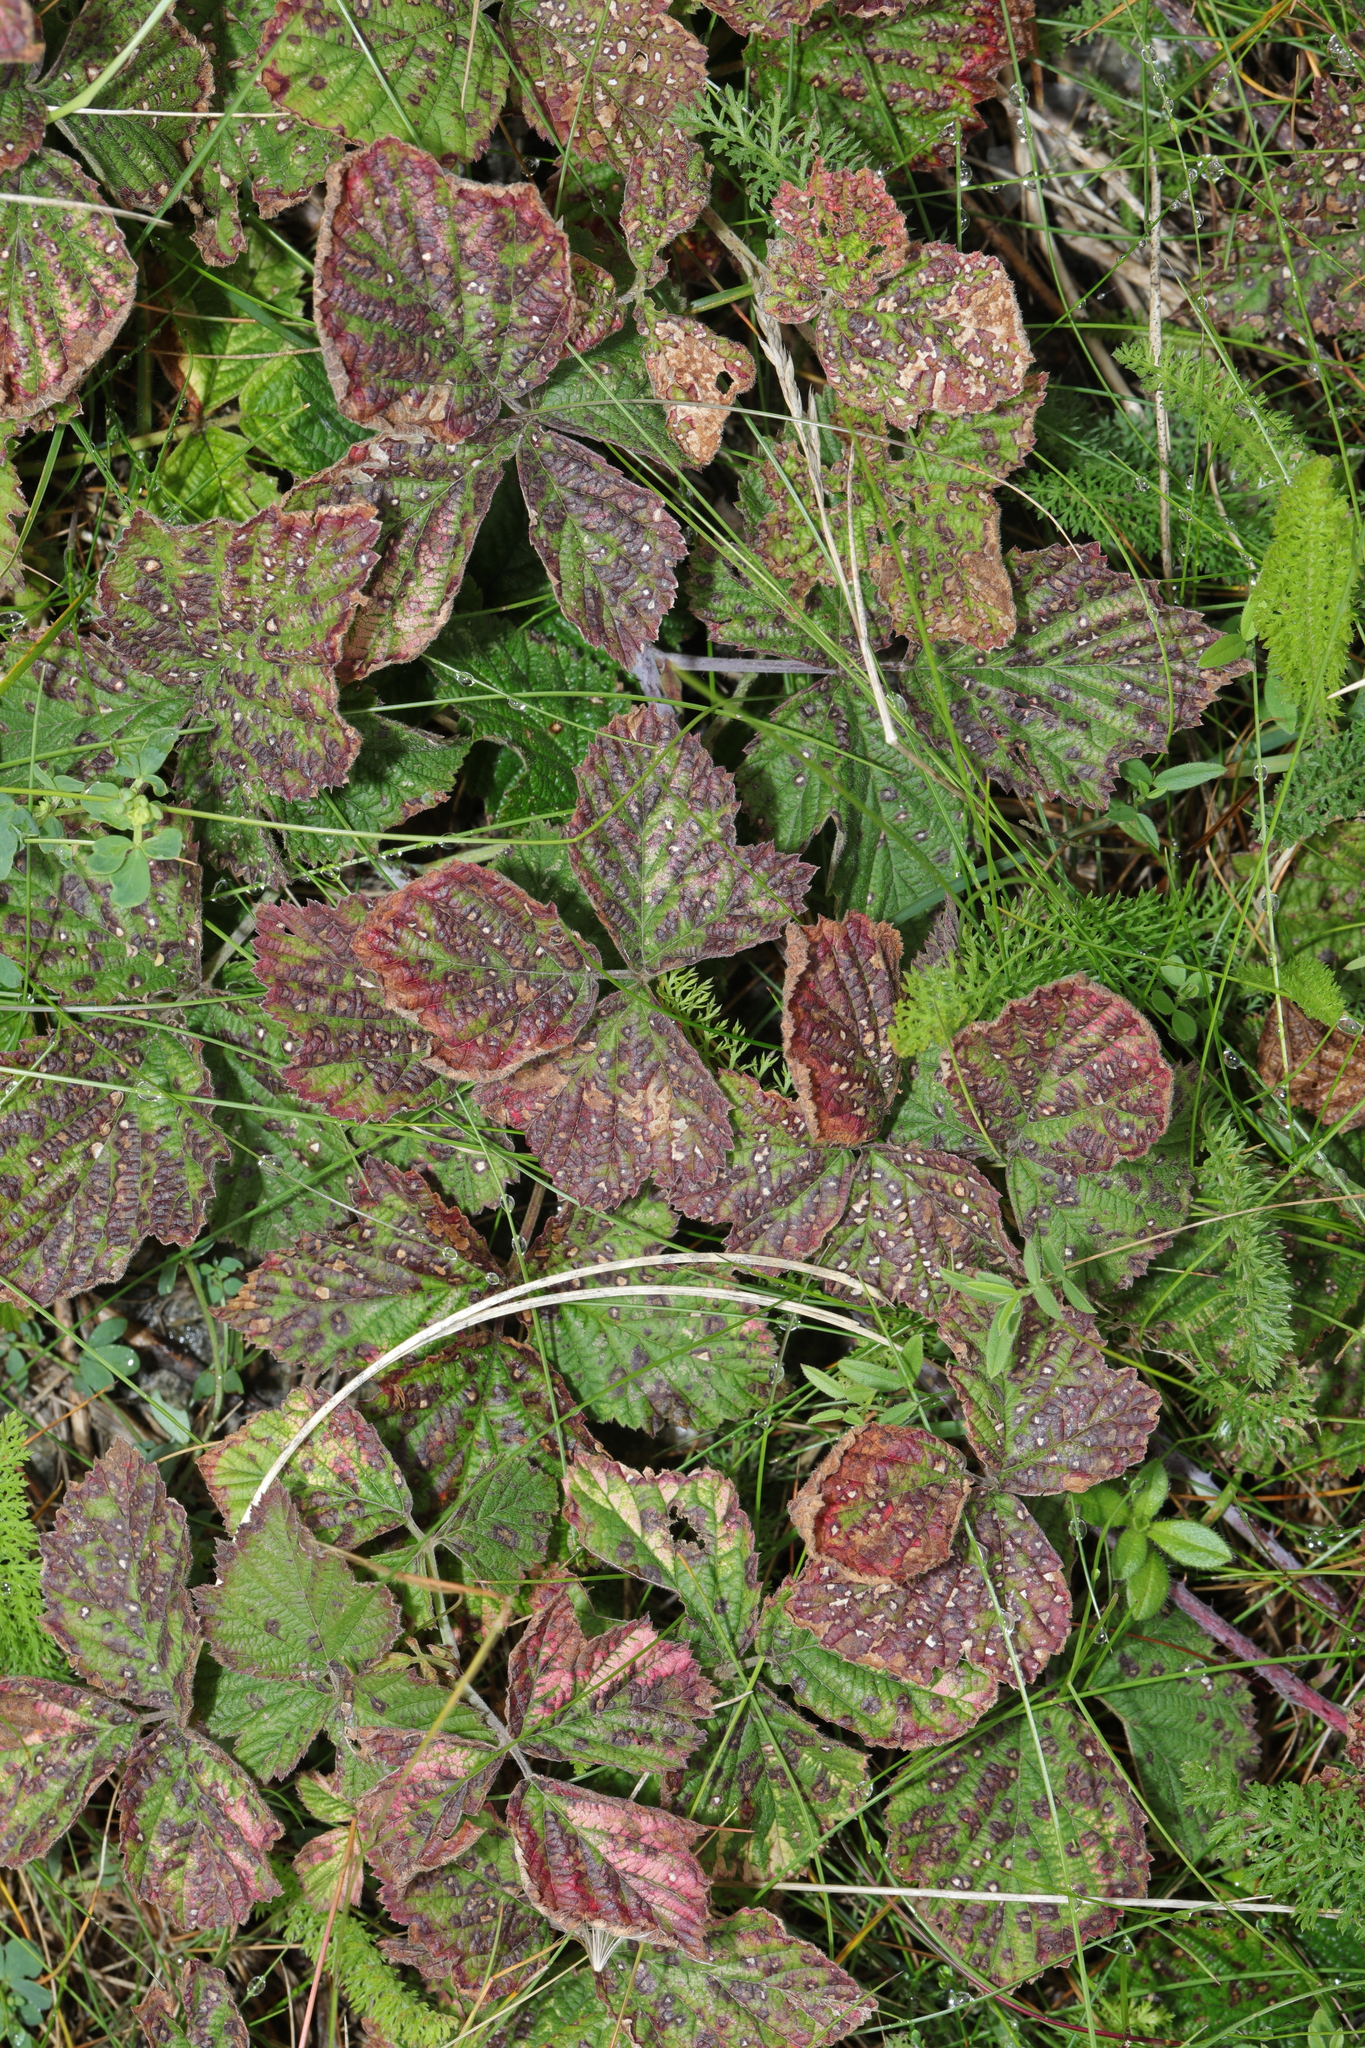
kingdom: Plantae
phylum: Tracheophyta
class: Magnoliopsida
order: Rosales
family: Rosaceae
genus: Rubus
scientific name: Rubus caesius
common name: Dewberry
